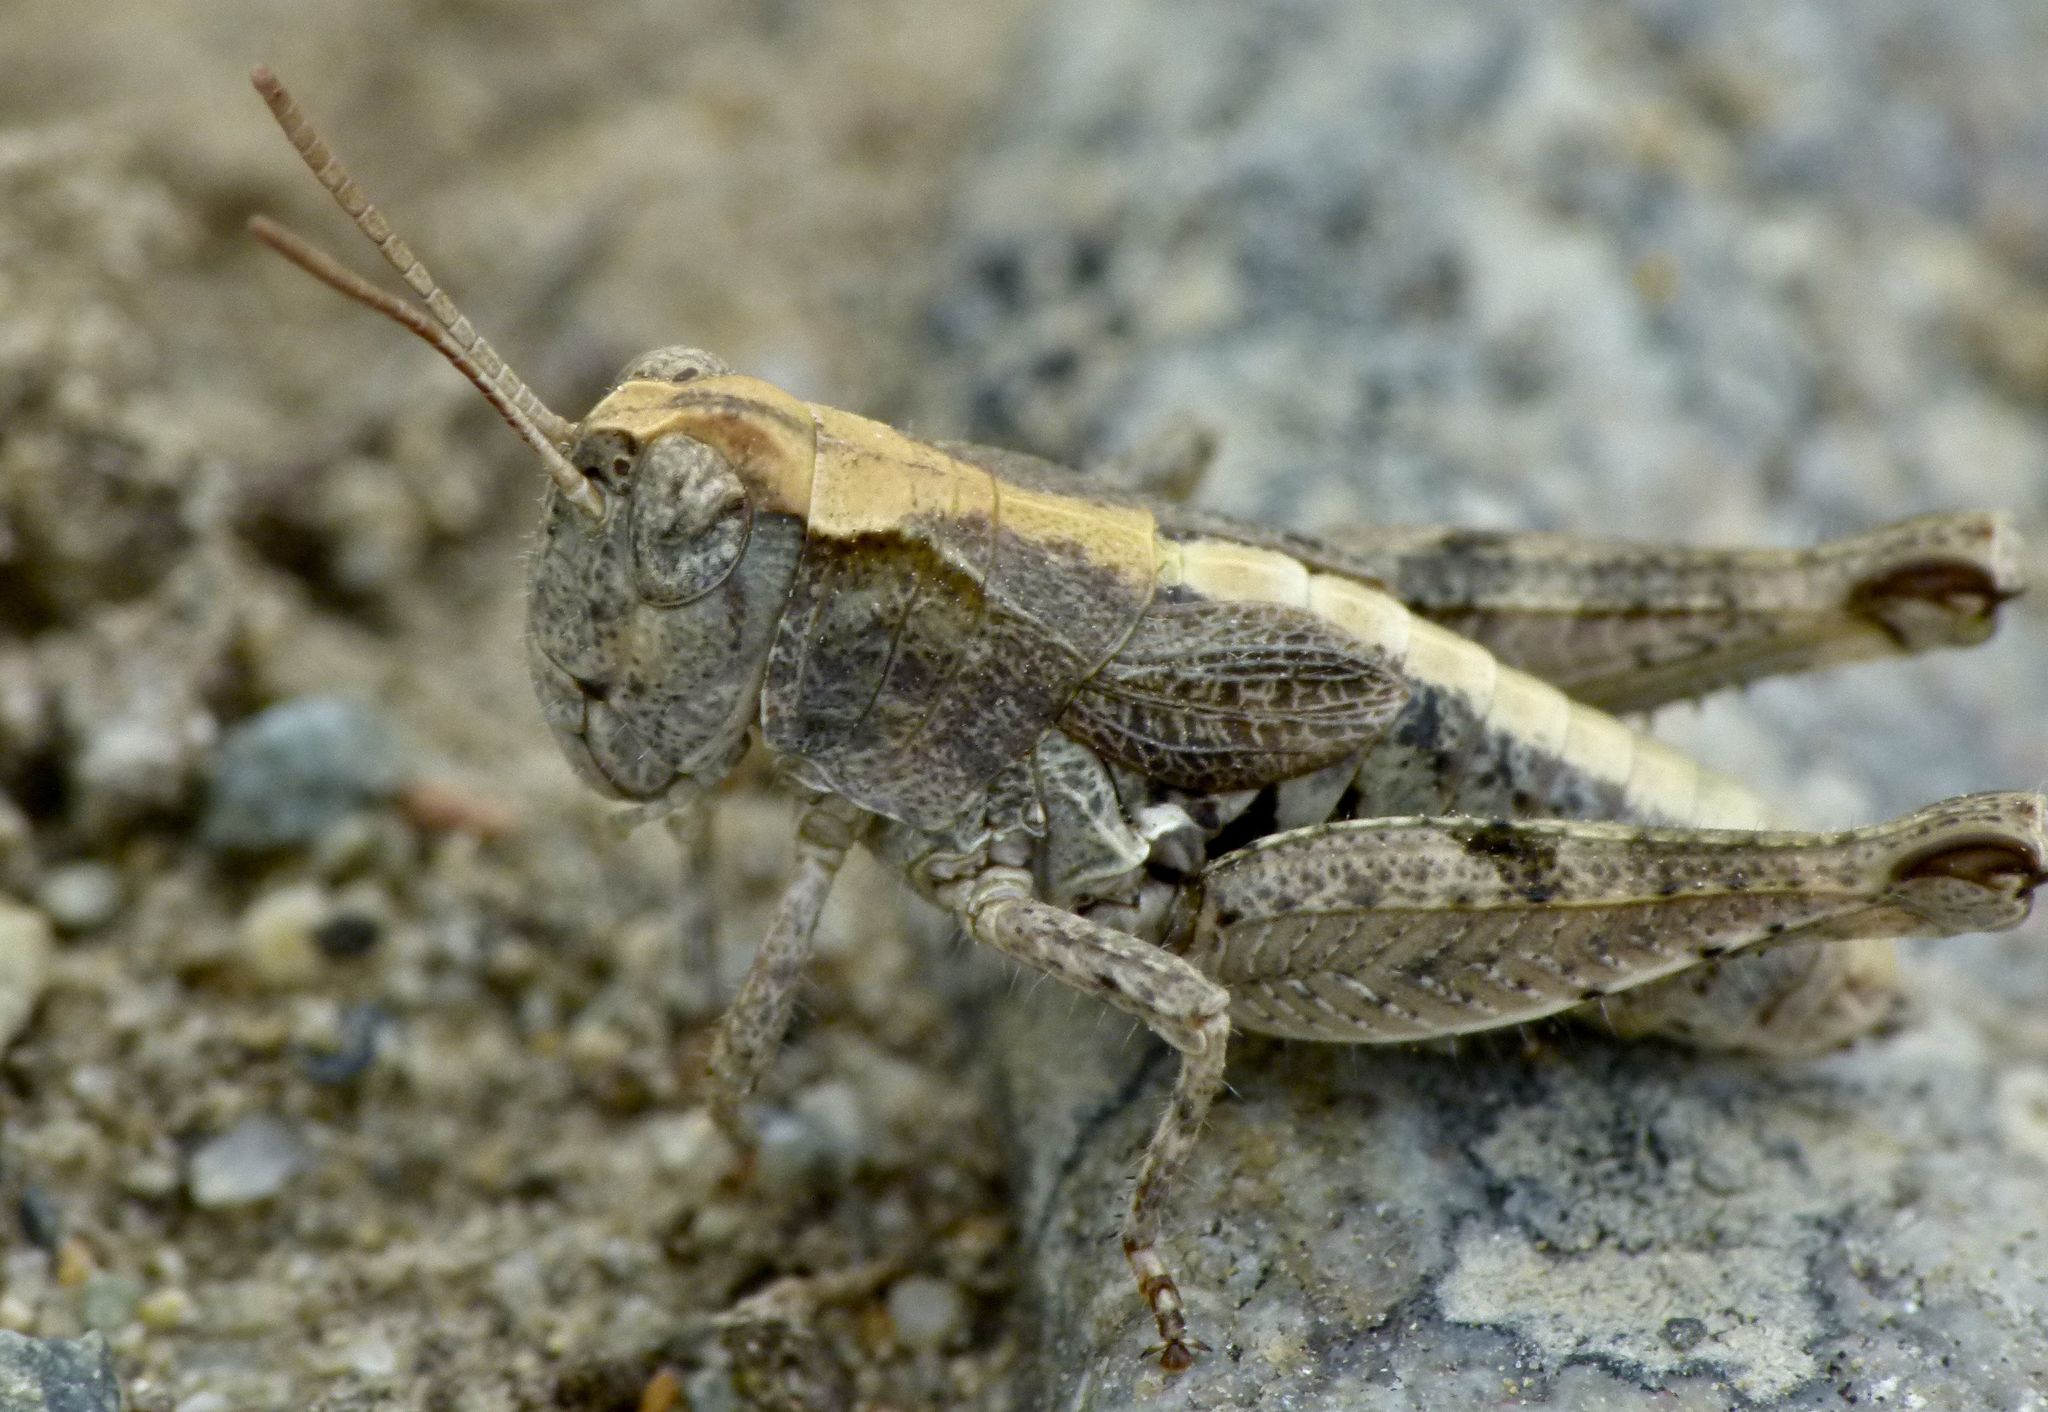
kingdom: Animalia
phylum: Arthropoda
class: Insecta
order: Orthoptera
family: Acrididae
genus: Phaulacridium
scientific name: Phaulacridium otagoense
